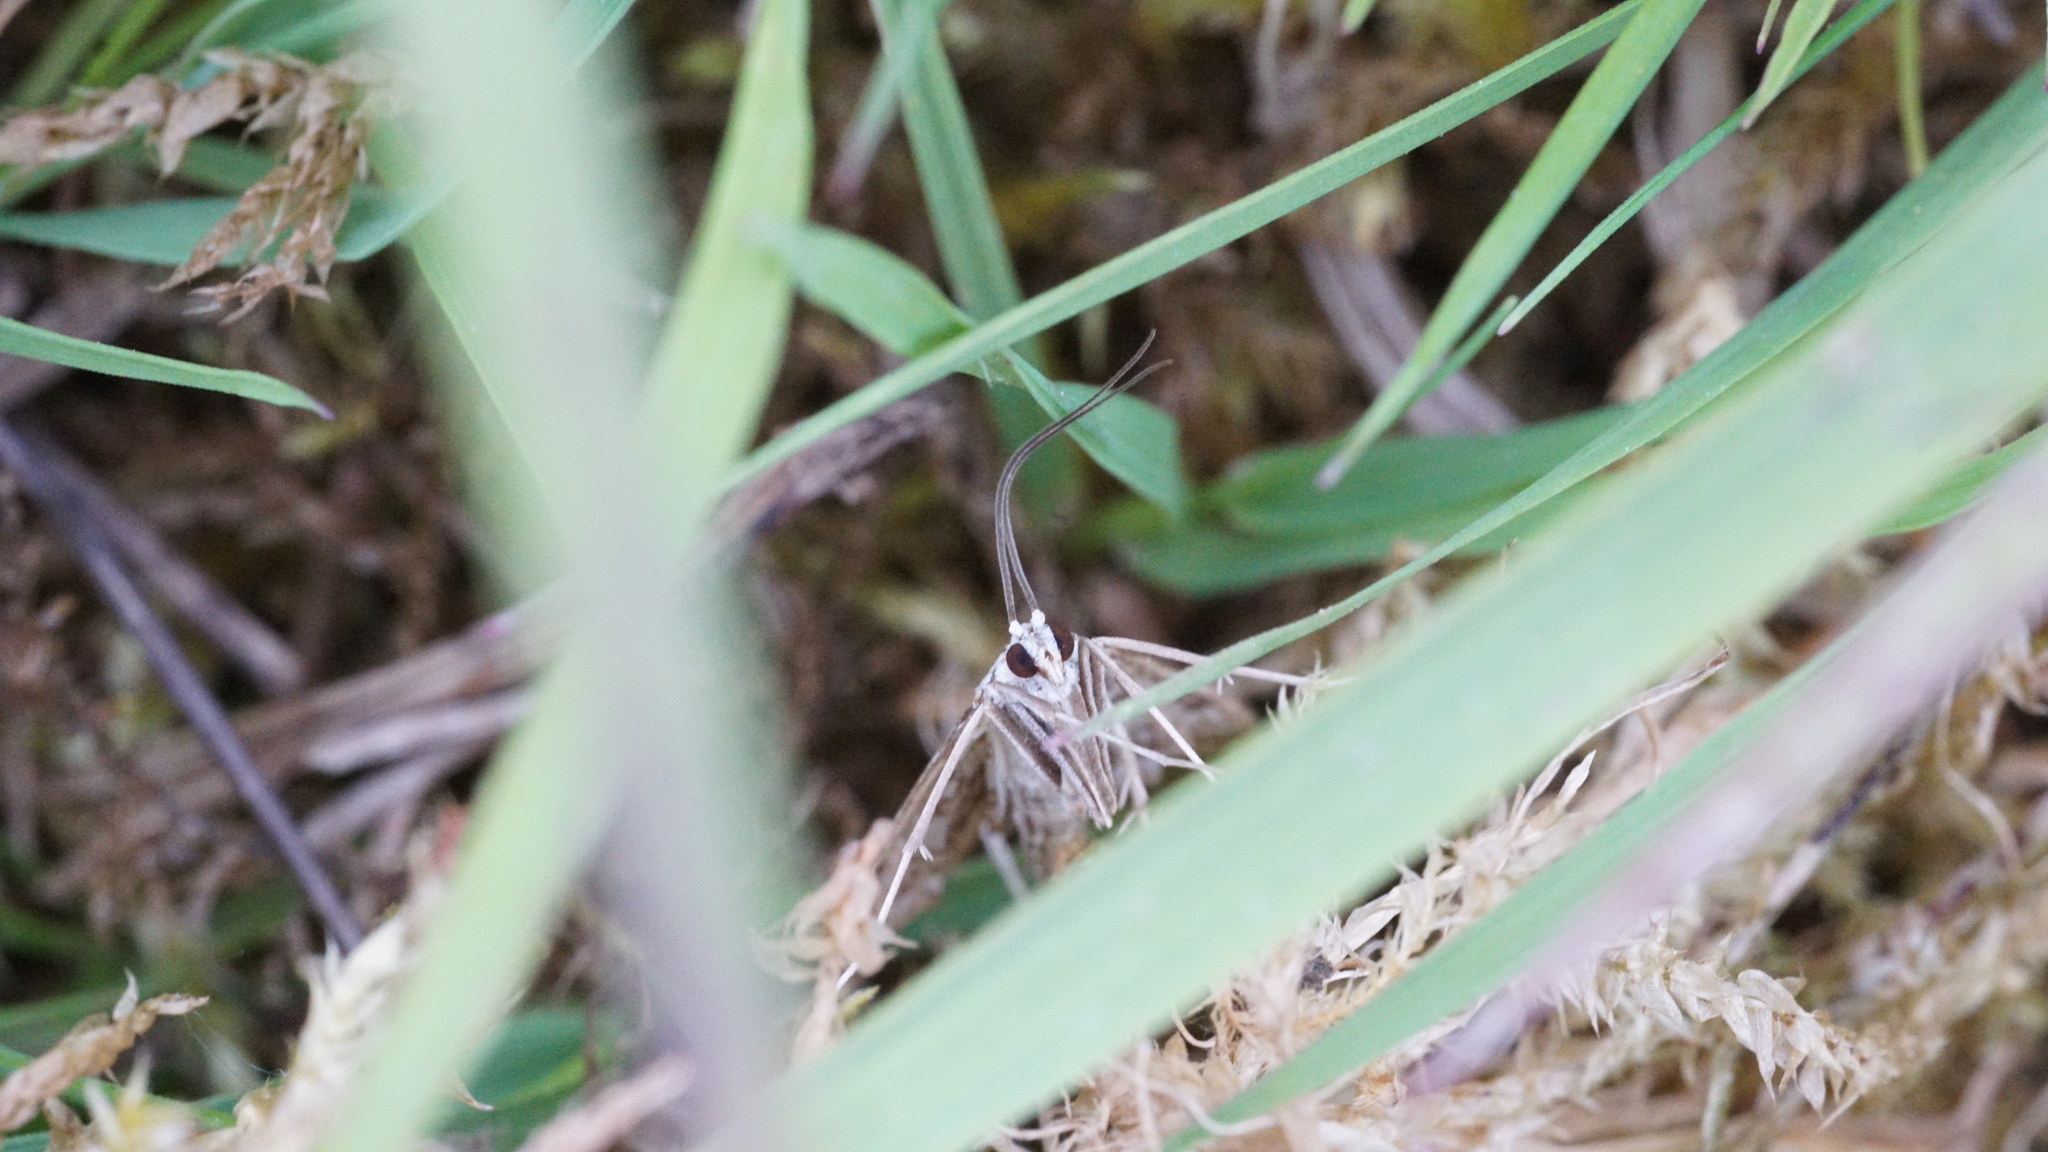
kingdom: Animalia
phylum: Arthropoda
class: Insecta
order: Lepidoptera
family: Crambidae
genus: Elophila
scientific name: Elophila nymphaeata
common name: Brown china-mark
